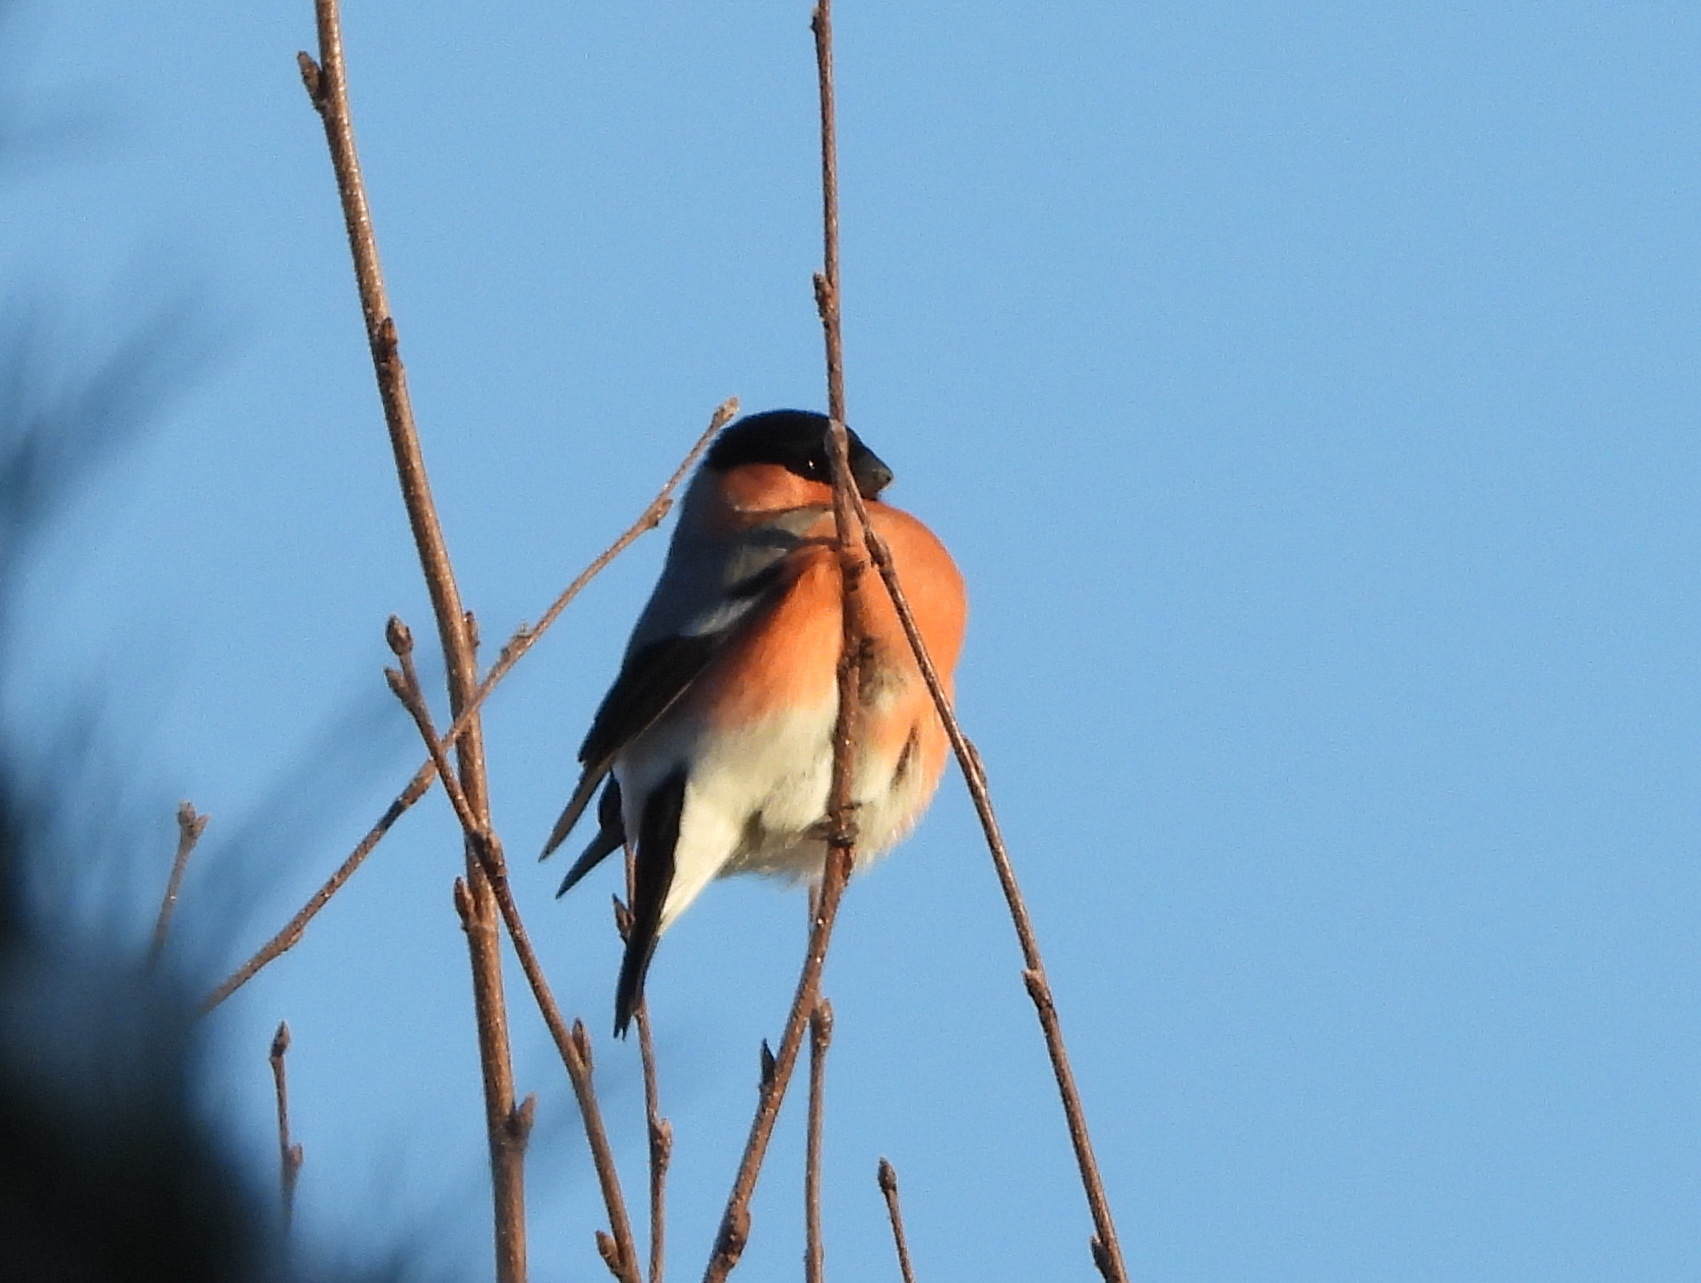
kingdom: Animalia
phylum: Chordata
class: Aves
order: Passeriformes
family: Fringillidae
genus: Pyrrhula
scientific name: Pyrrhula pyrrhula
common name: Eurasian bullfinch
